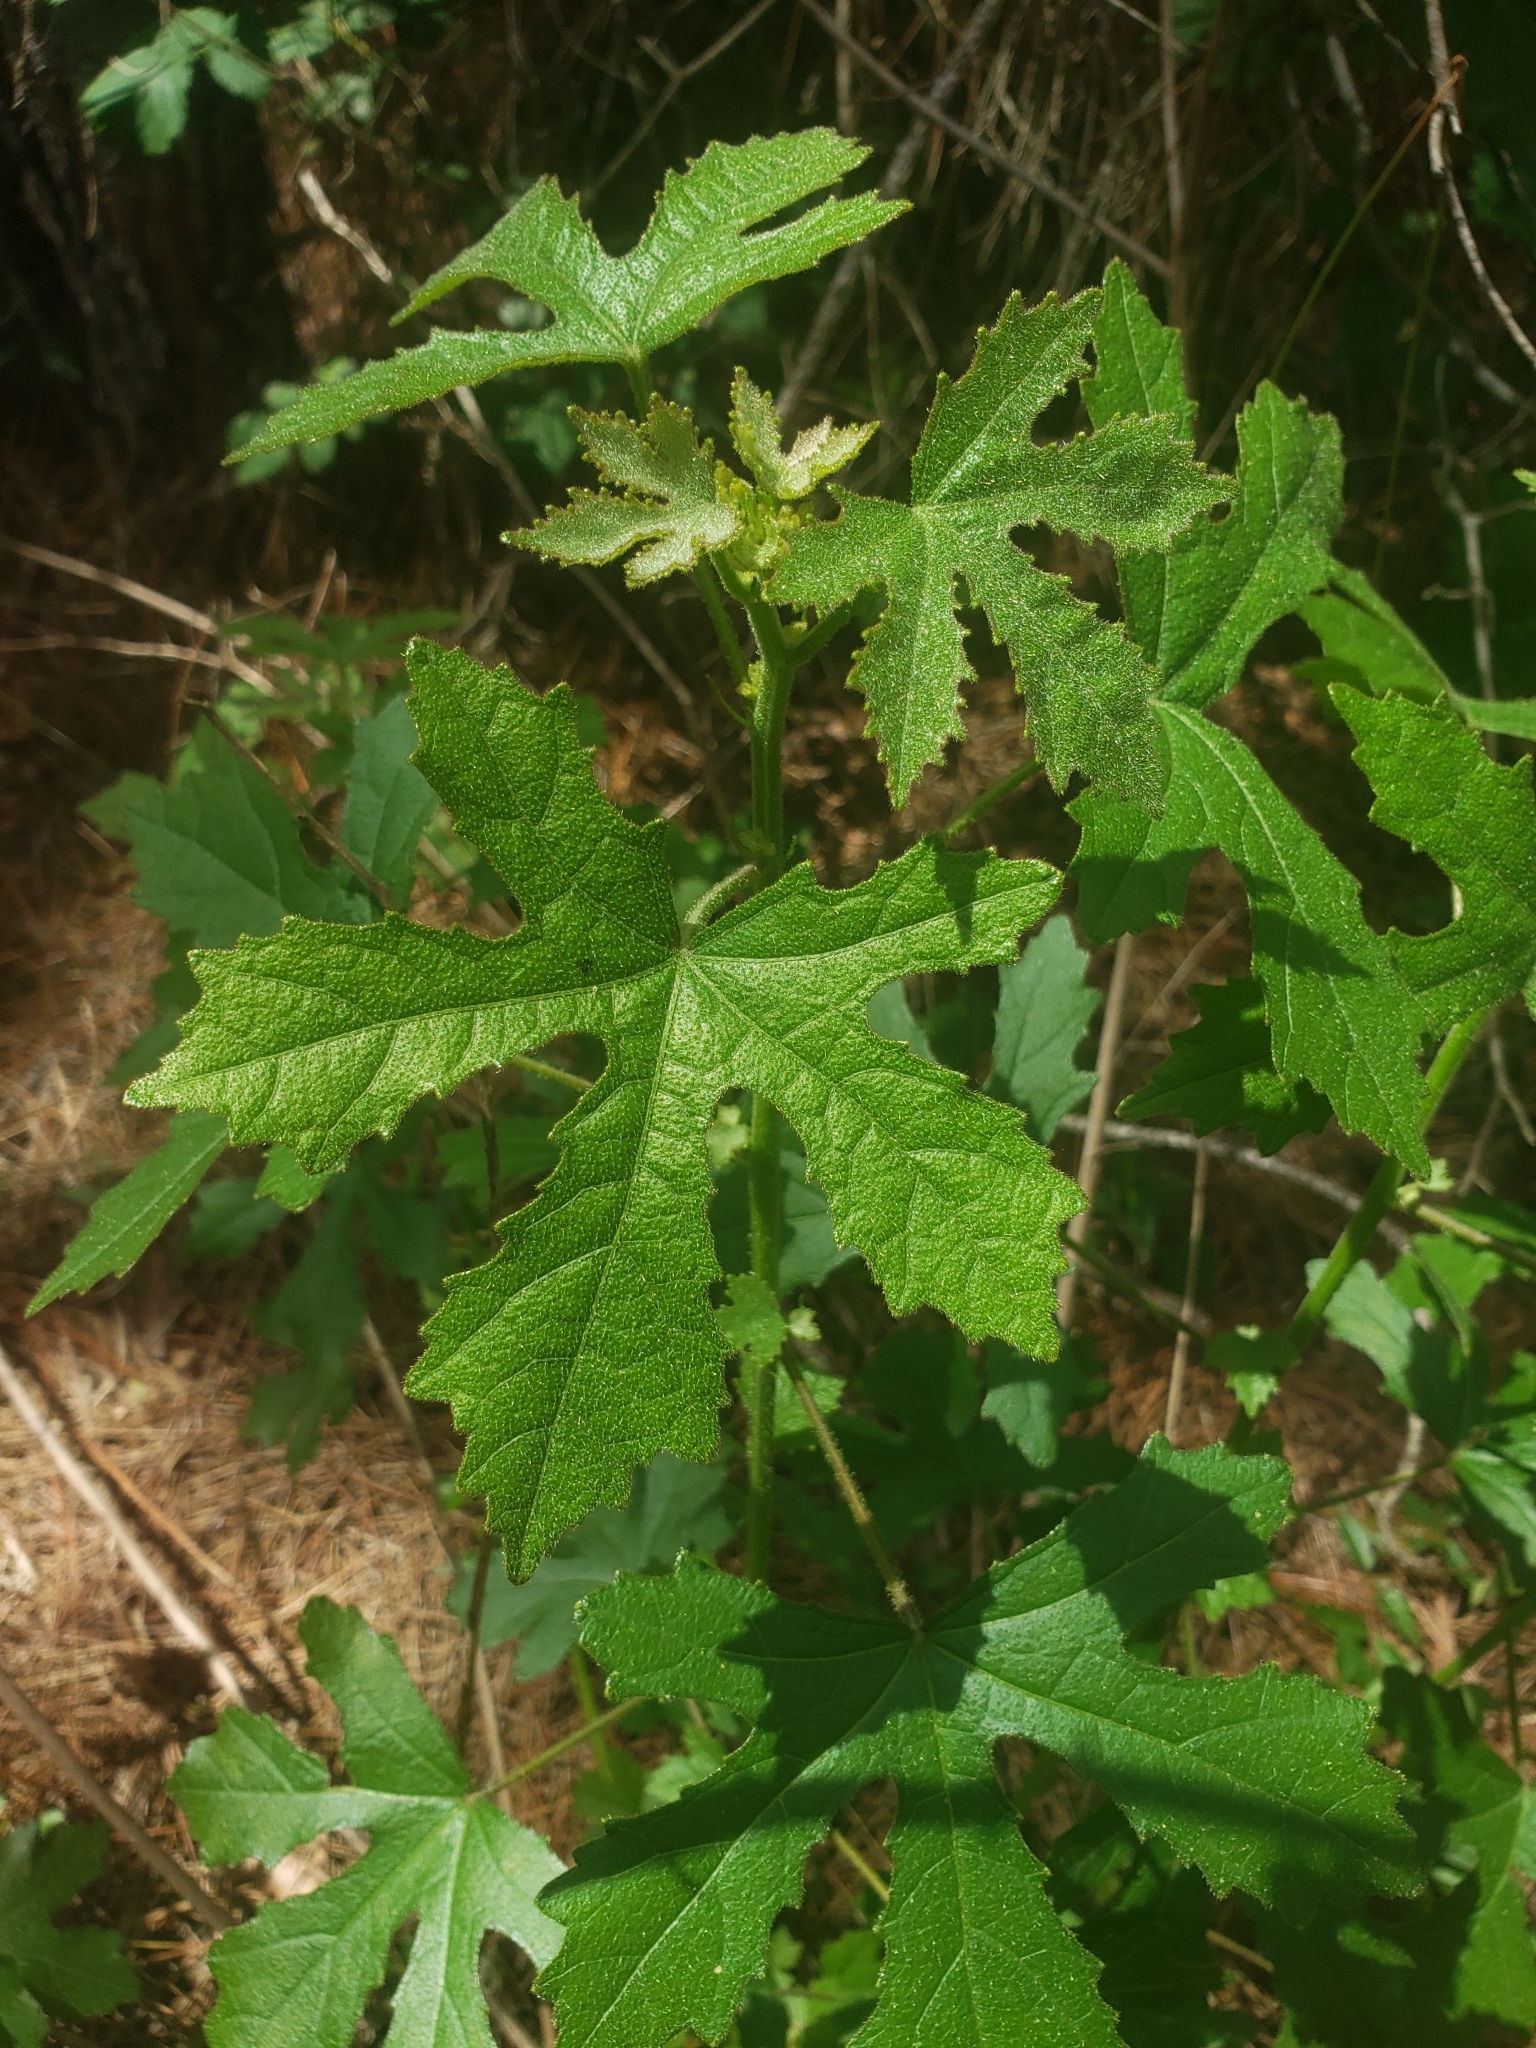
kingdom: Plantae
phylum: Tracheophyta
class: Magnoliopsida
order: Malvales
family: Malvaceae
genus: Hibiscus
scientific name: Hibiscus aculeatus
